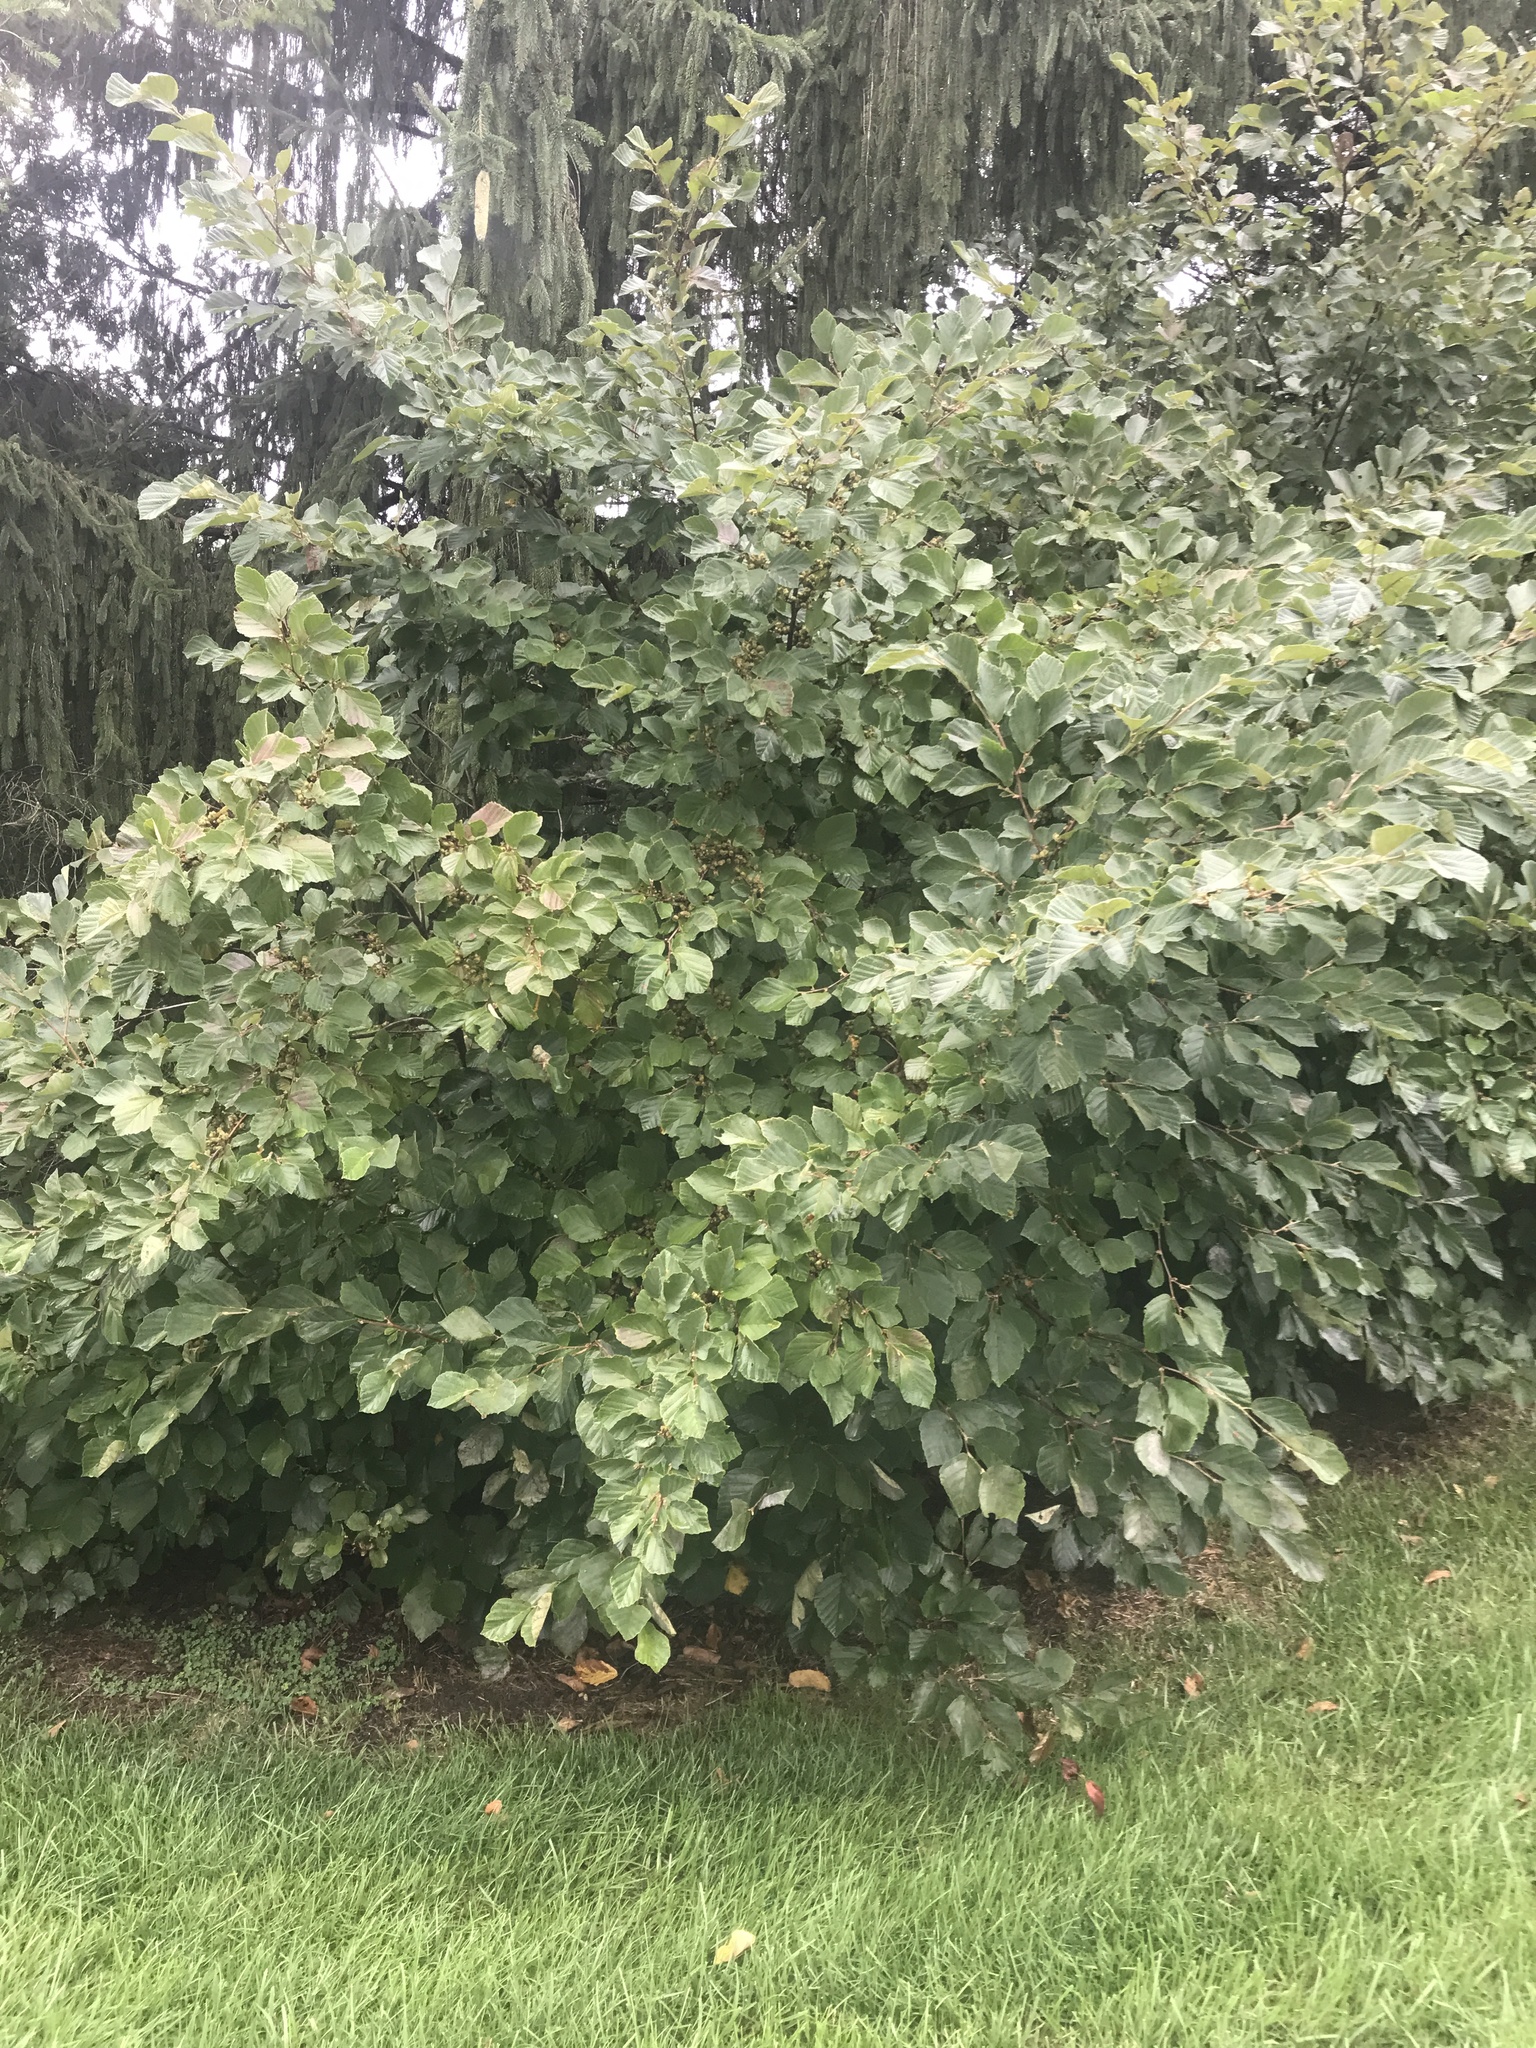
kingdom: Plantae
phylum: Tracheophyta
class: Magnoliopsida
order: Saxifragales
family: Hamamelidaceae
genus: Hamamelis
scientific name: Hamamelis virginiana
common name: Witch-hazel
